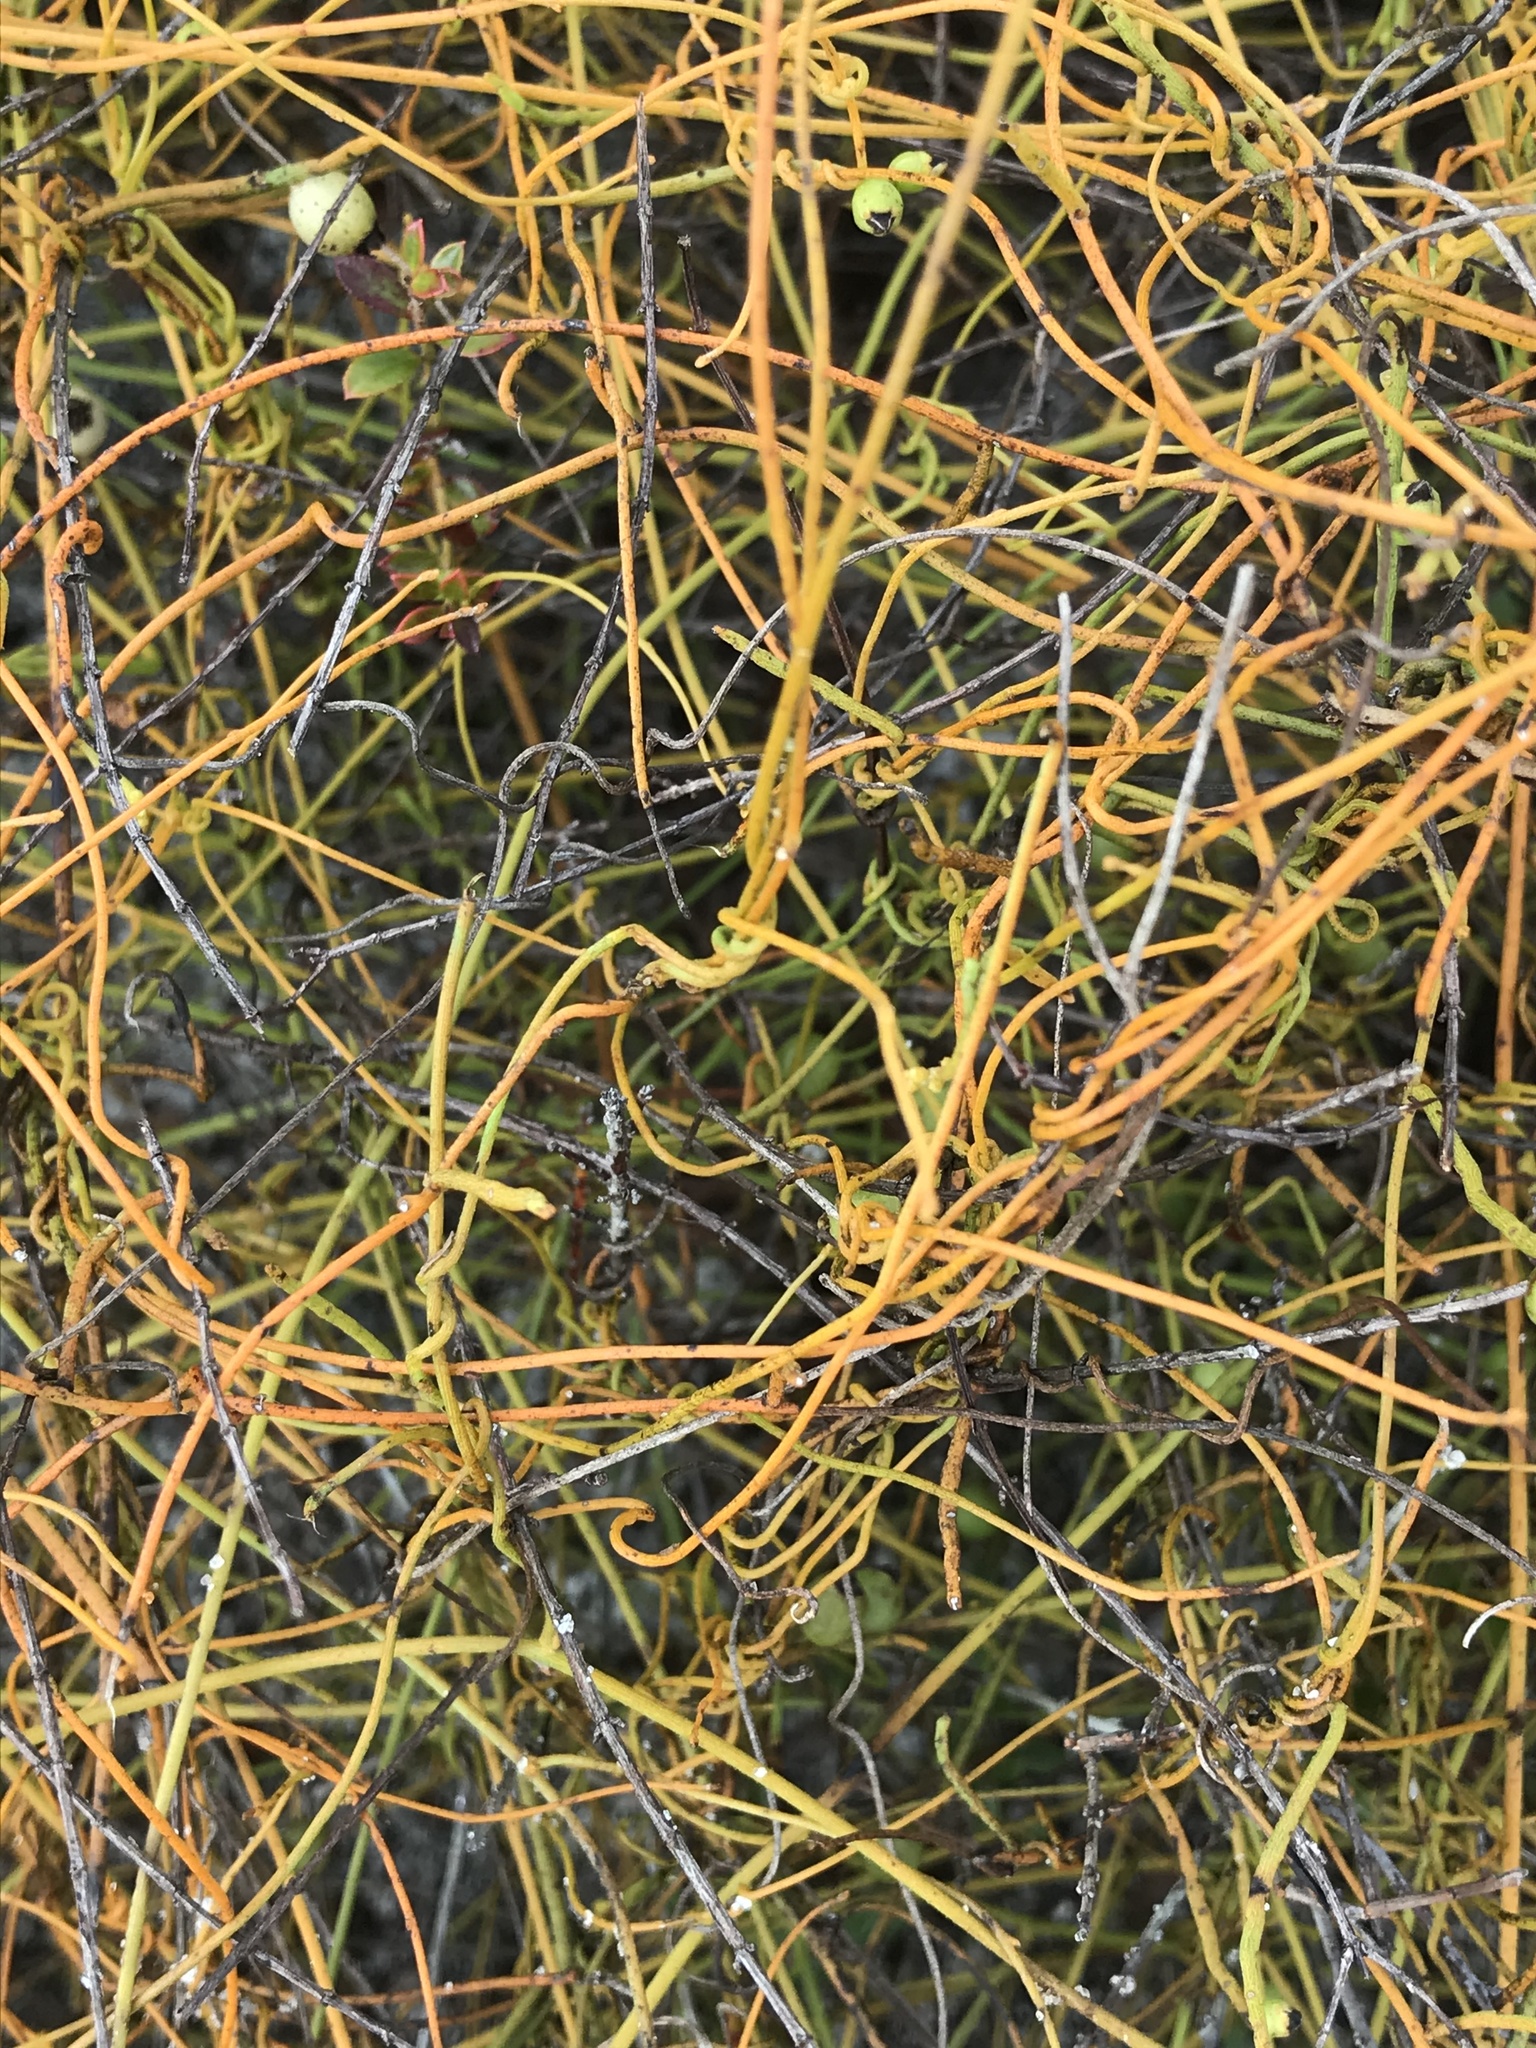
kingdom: Plantae
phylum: Tracheophyta
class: Magnoliopsida
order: Laurales
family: Lauraceae
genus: Cassytha
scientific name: Cassytha filiformis
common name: Dodder-laurel
